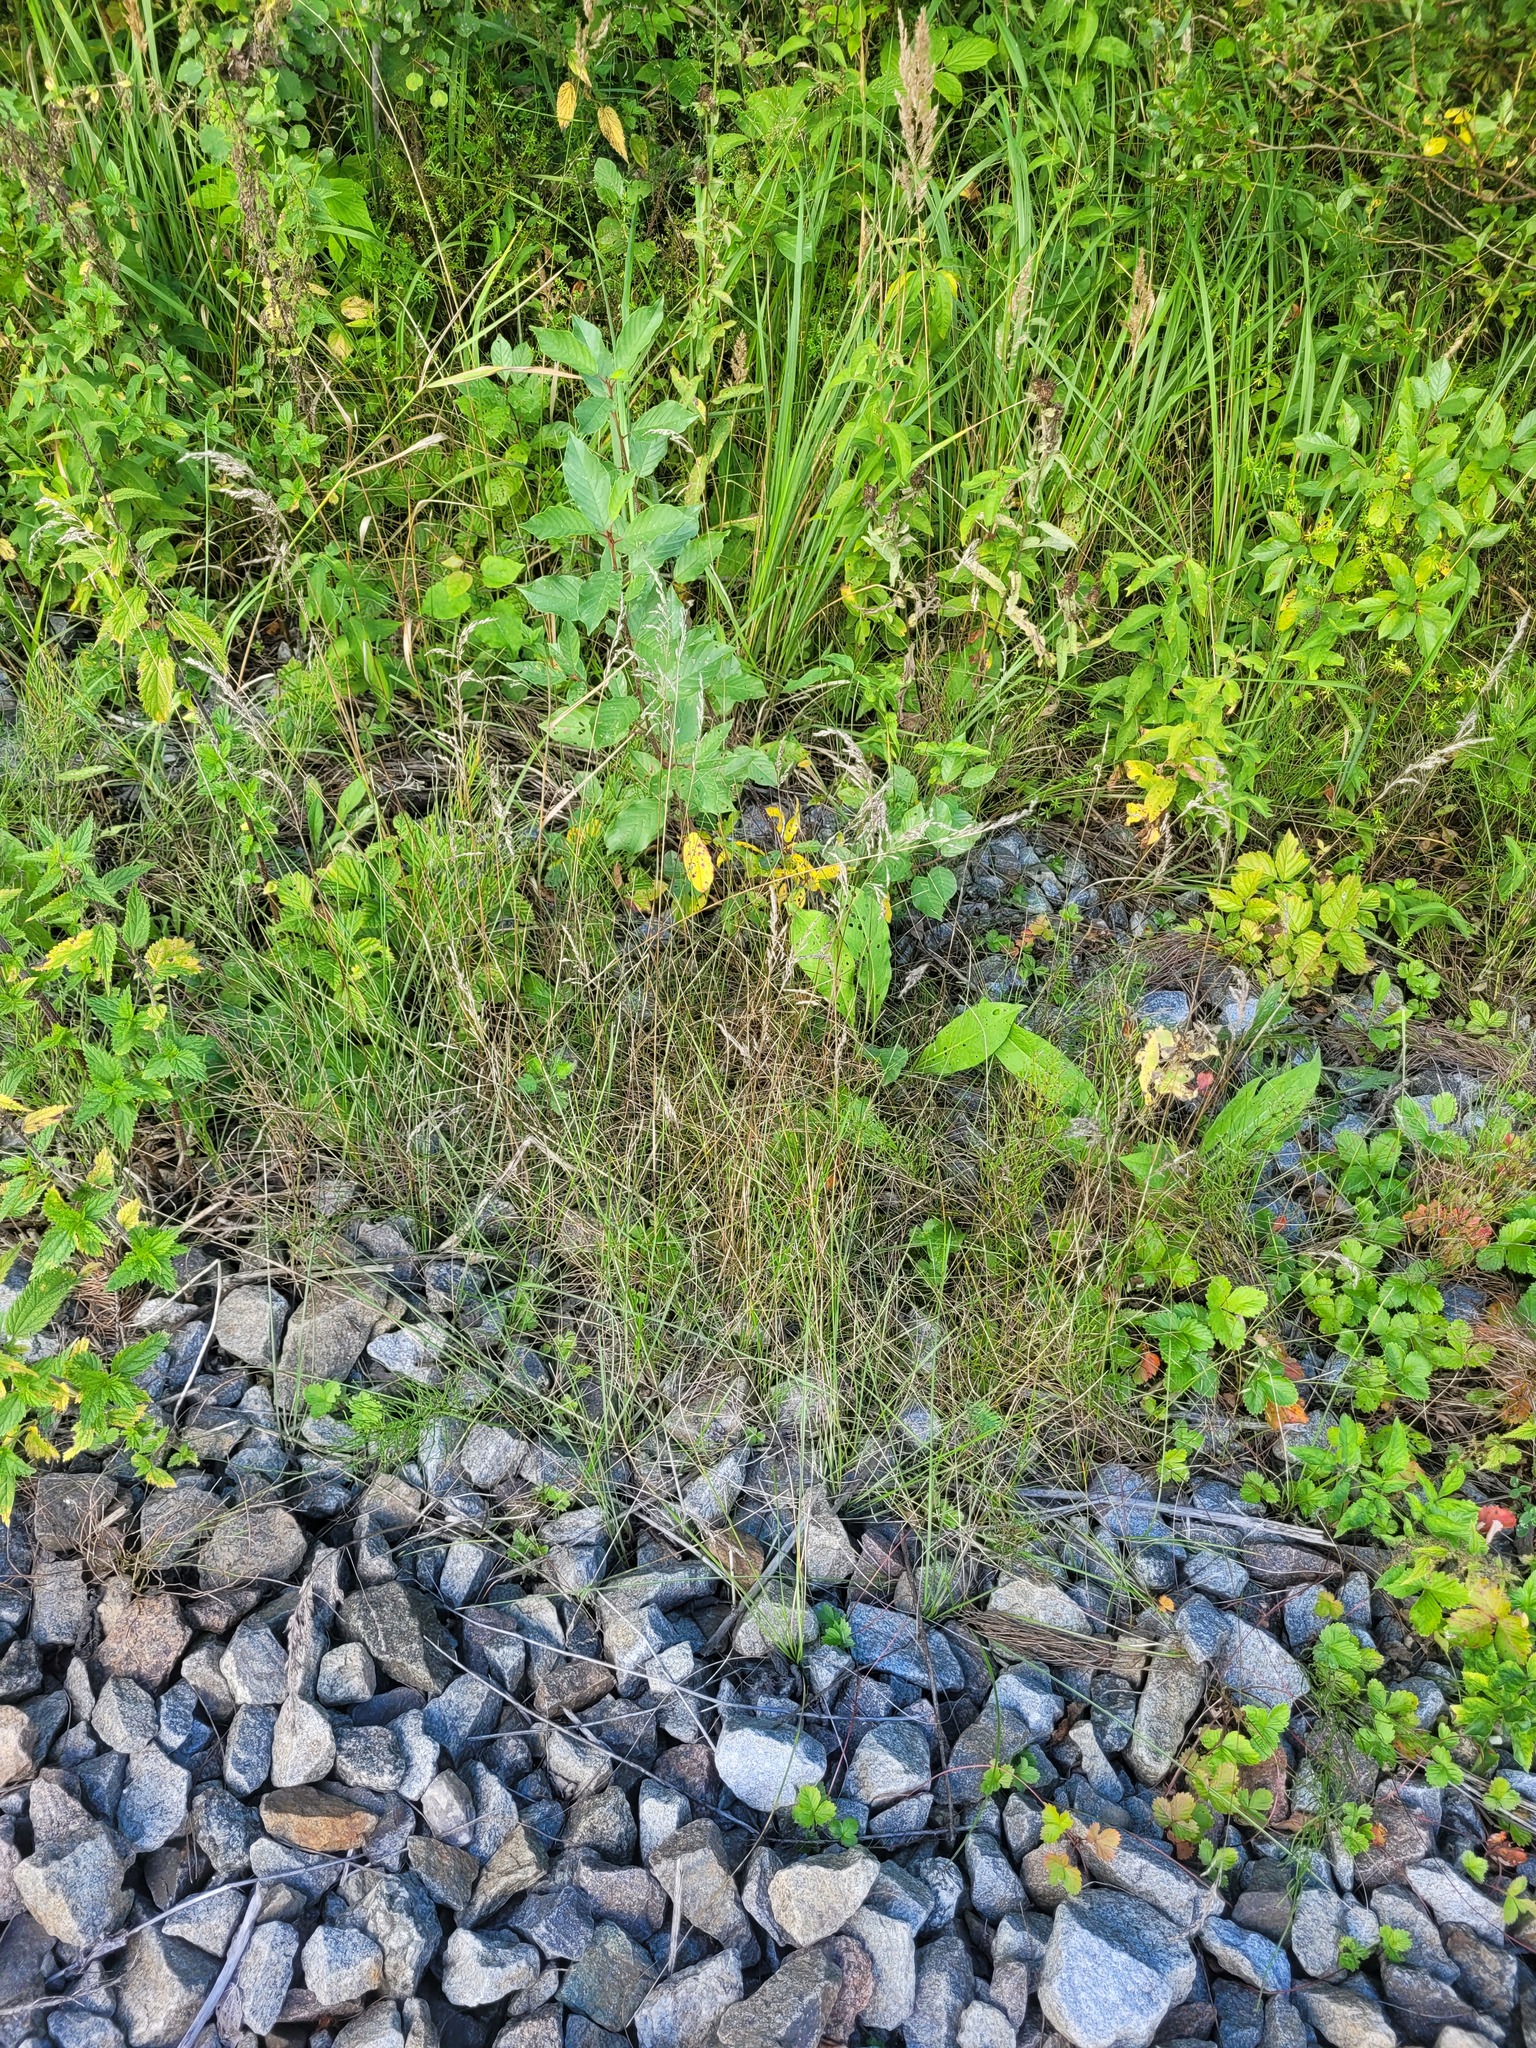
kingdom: Plantae
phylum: Tracheophyta
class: Liliopsida
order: Poales
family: Poaceae
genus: Poa
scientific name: Poa angustifolia
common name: Narrow-leaved meadow-grass
